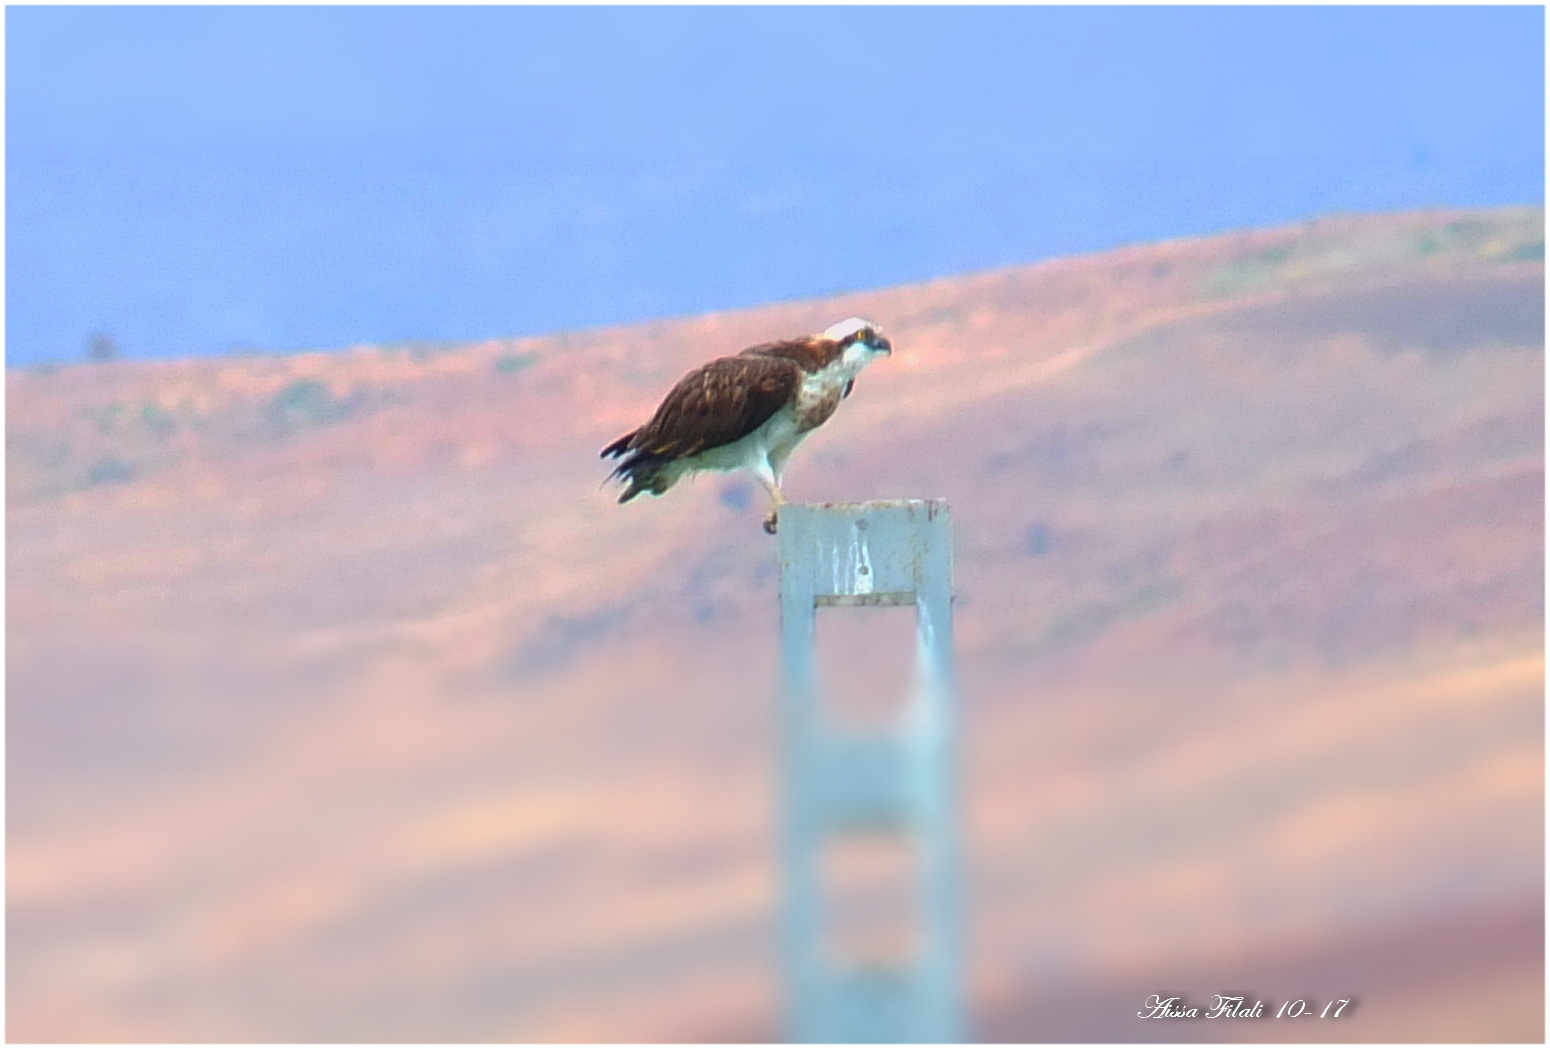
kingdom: Animalia
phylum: Chordata
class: Aves
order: Accipitriformes
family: Pandionidae
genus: Pandion
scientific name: Pandion haliaetus
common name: Osprey
